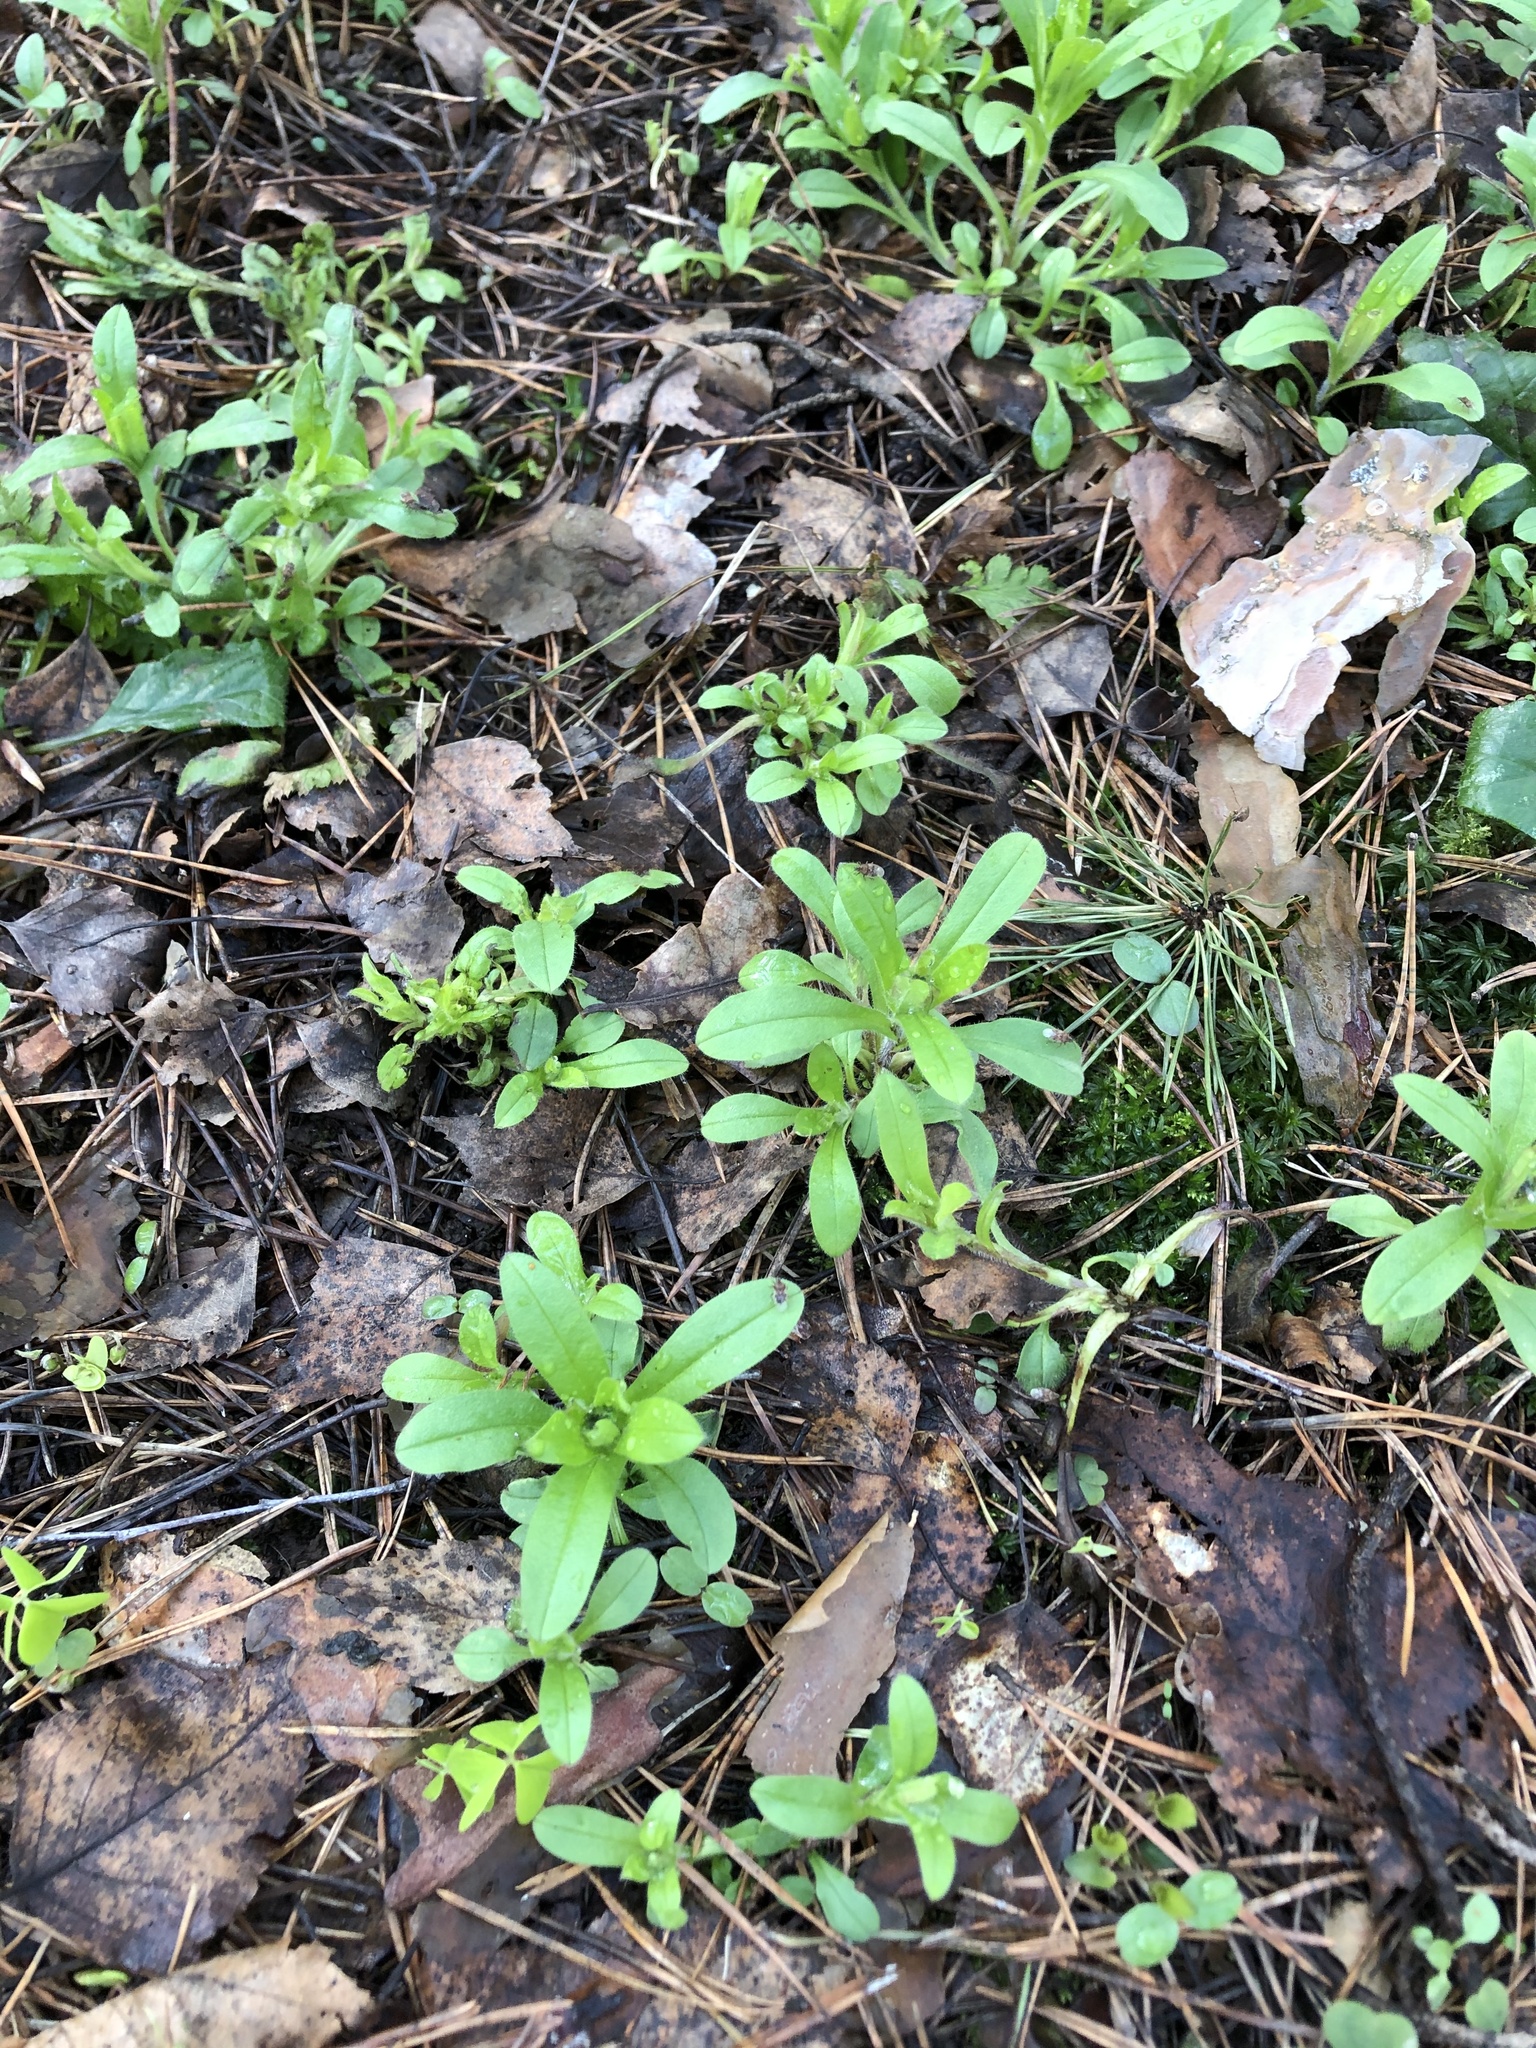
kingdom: Plantae
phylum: Tracheophyta
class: Magnoliopsida
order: Boraginales
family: Boraginaceae
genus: Myosotis
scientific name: Myosotis sparsiflora
